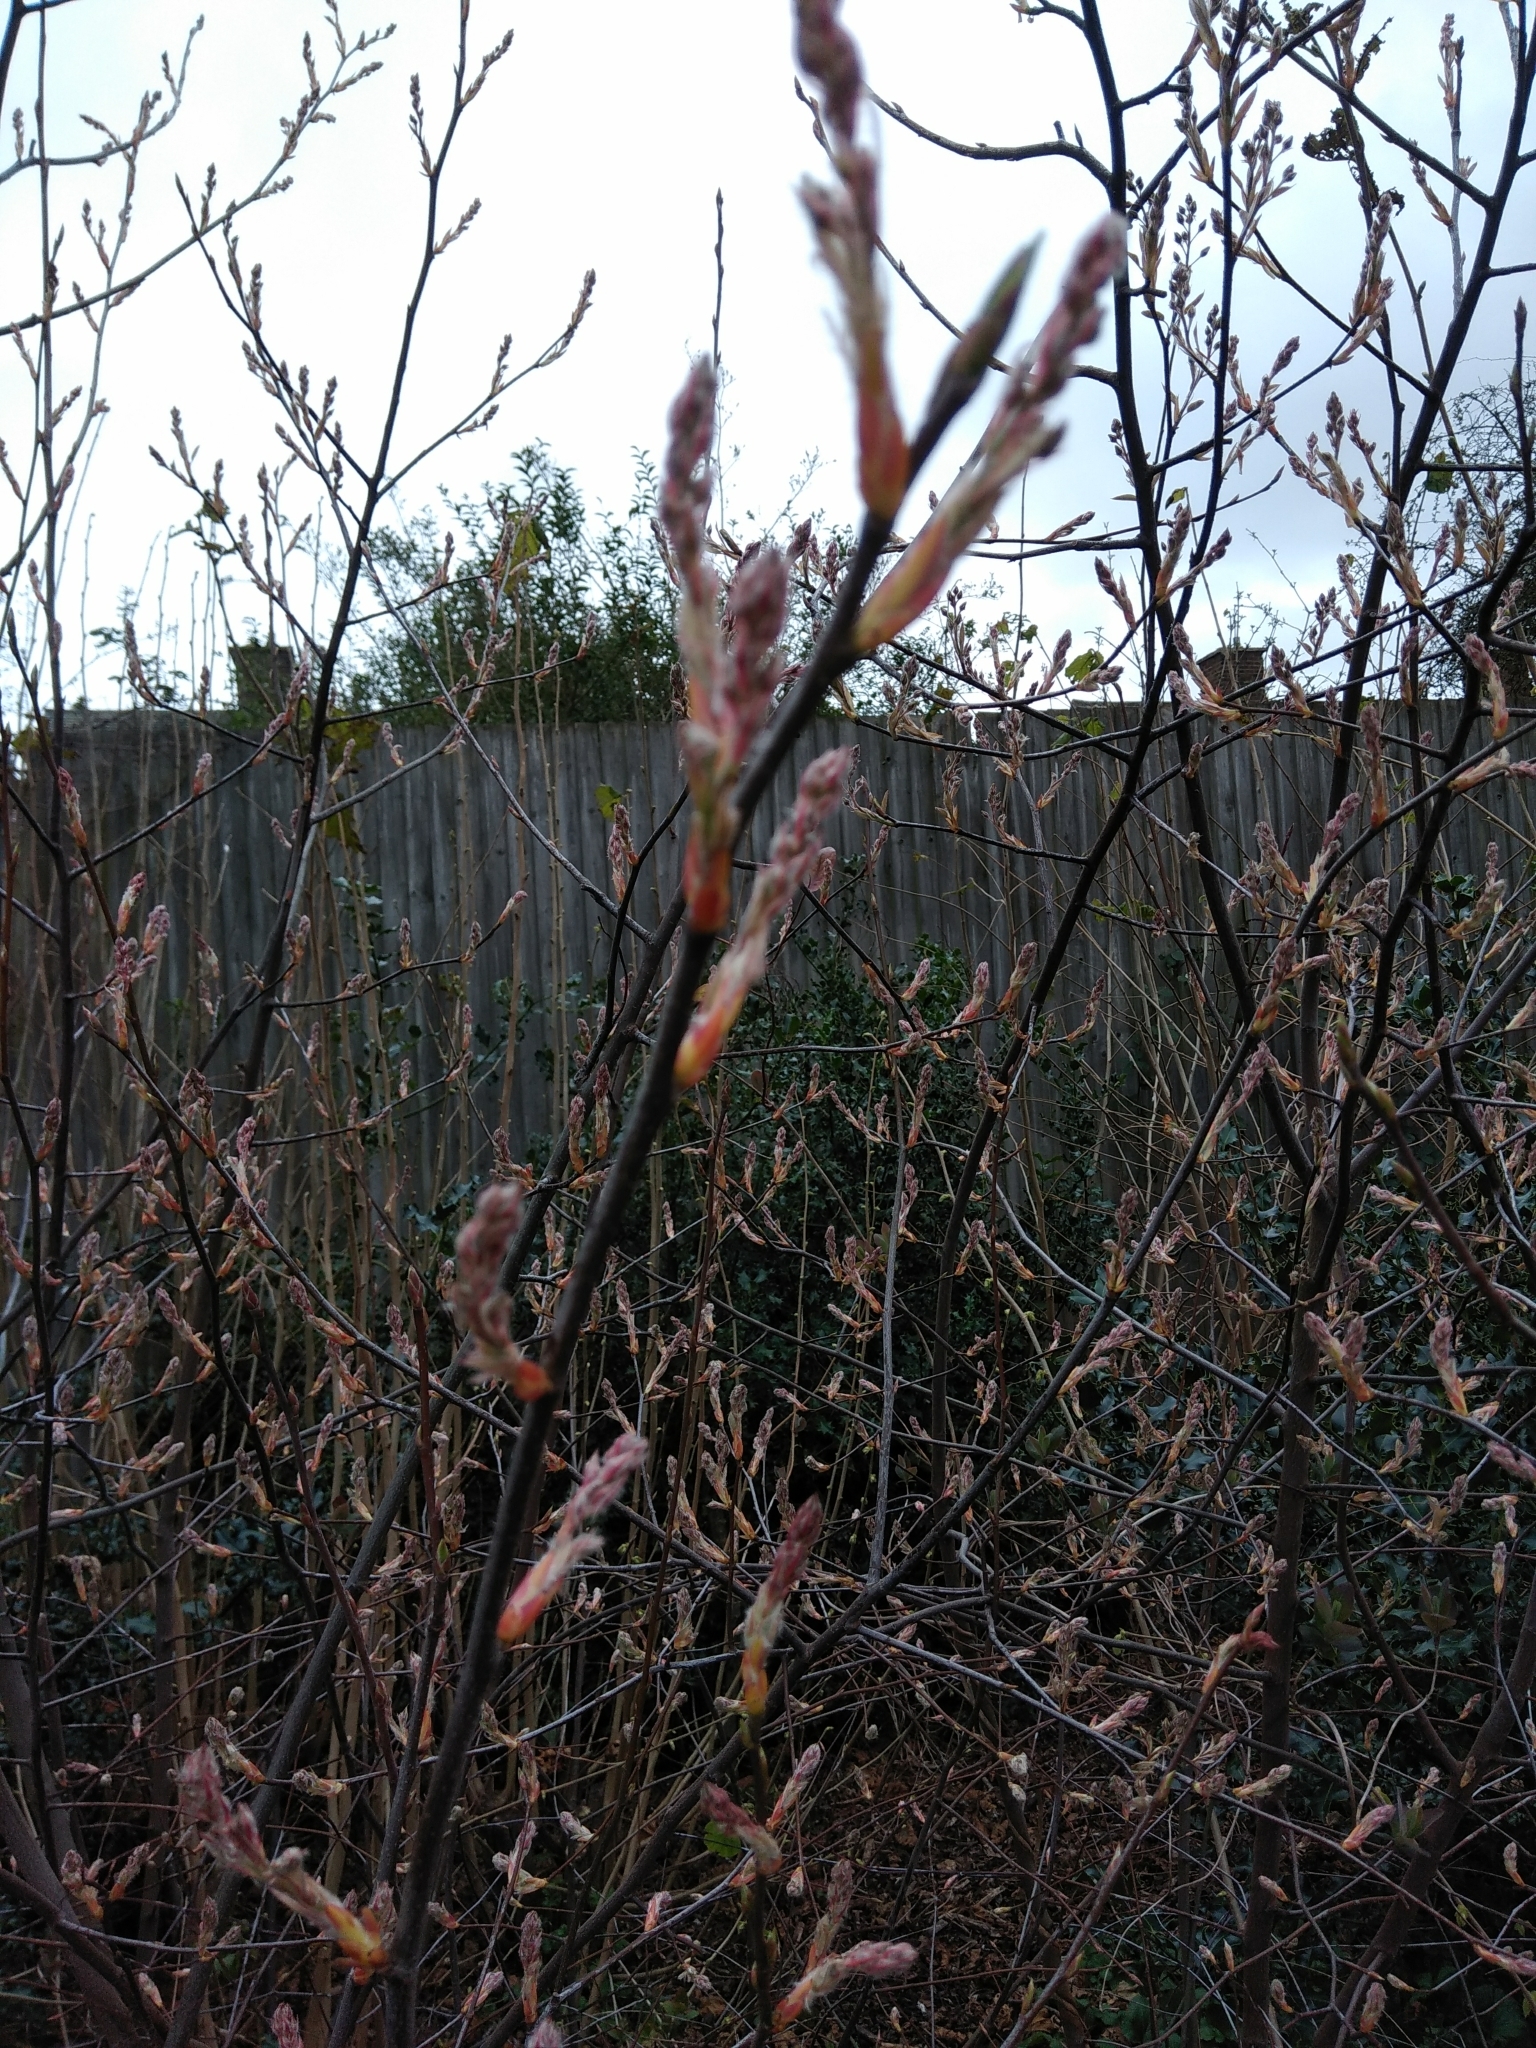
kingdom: Plantae
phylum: Tracheophyta
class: Magnoliopsida
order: Rosales
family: Rosaceae
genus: Amelanchier
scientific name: Amelanchier lamarckii
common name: Juneberry
